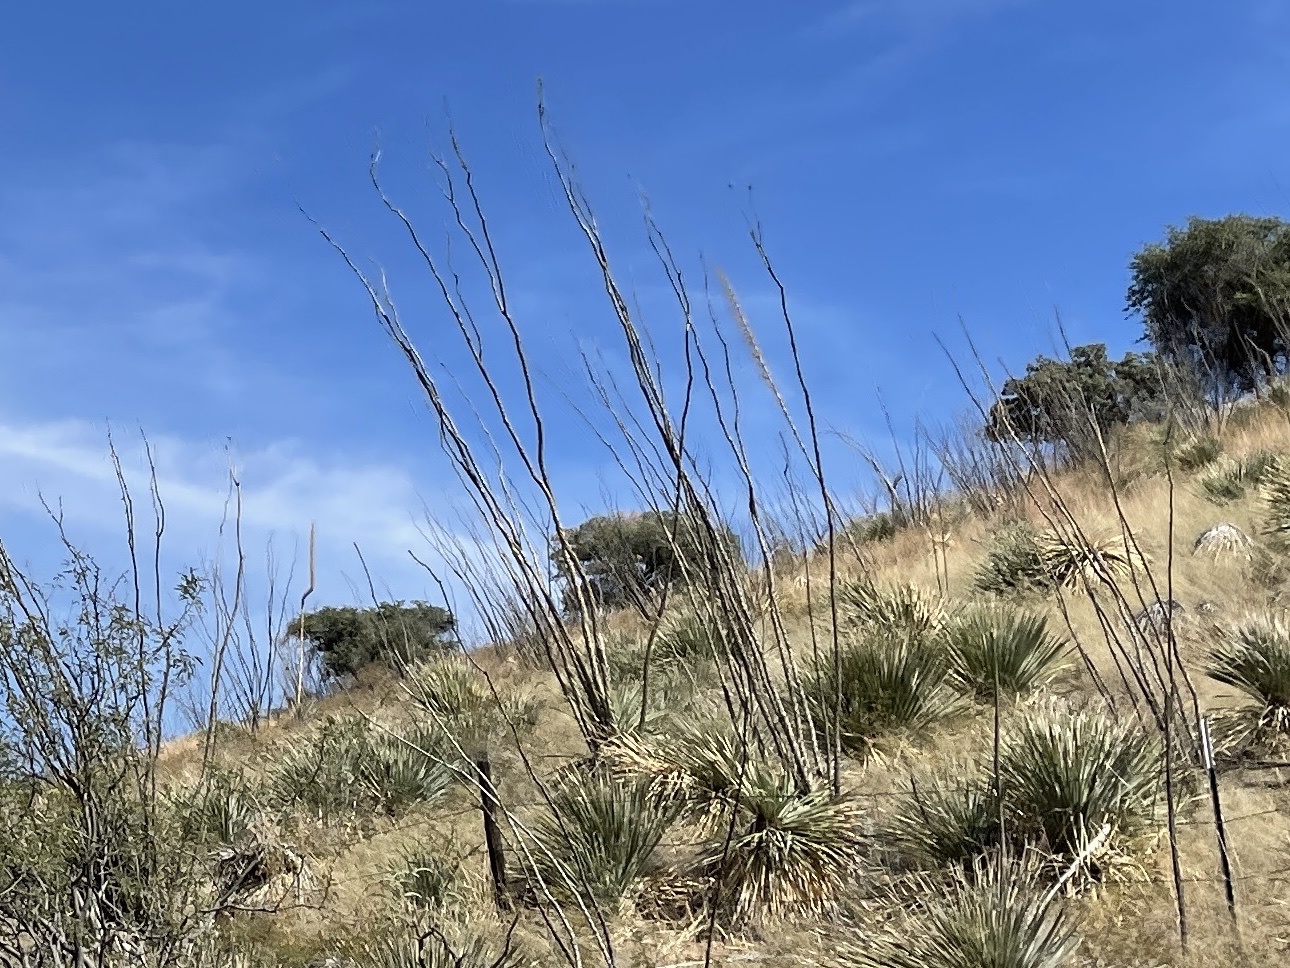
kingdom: Plantae
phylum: Tracheophyta
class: Magnoliopsida
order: Ericales
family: Fouquieriaceae
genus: Fouquieria
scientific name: Fouquieria splendens
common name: Vine-cactus
